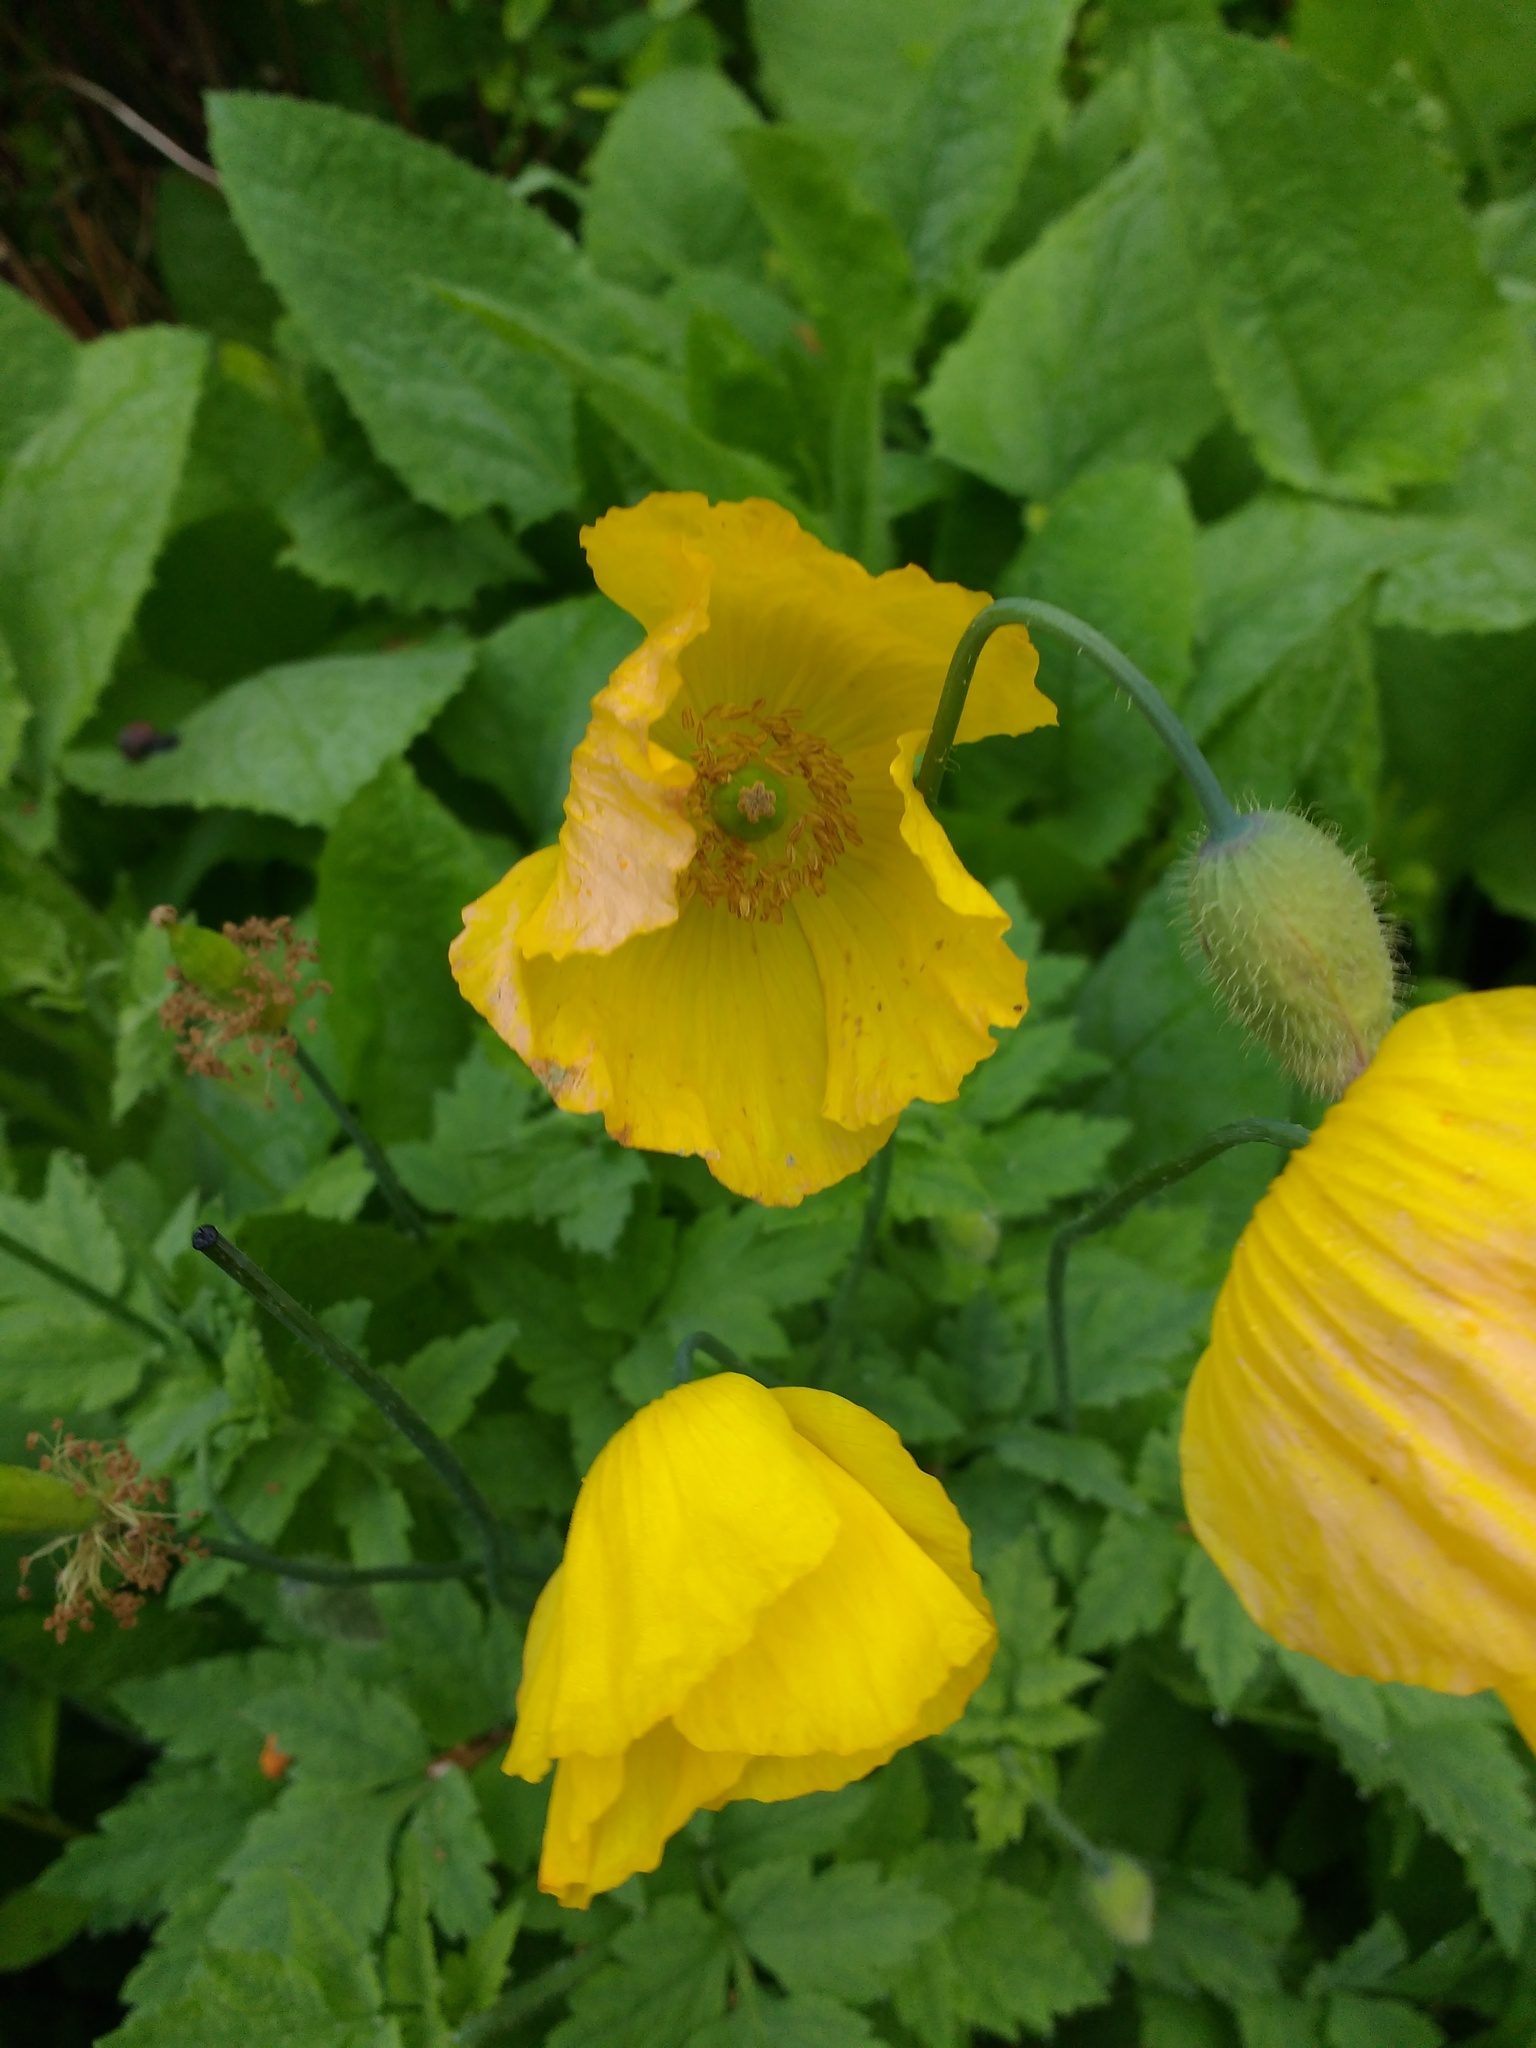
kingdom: Plantae
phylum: Tracheophyta
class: Magnoliopsida
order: Ranunculales
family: Papaveraceae
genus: Papaver
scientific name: Papaver cambricum
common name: Poppy
